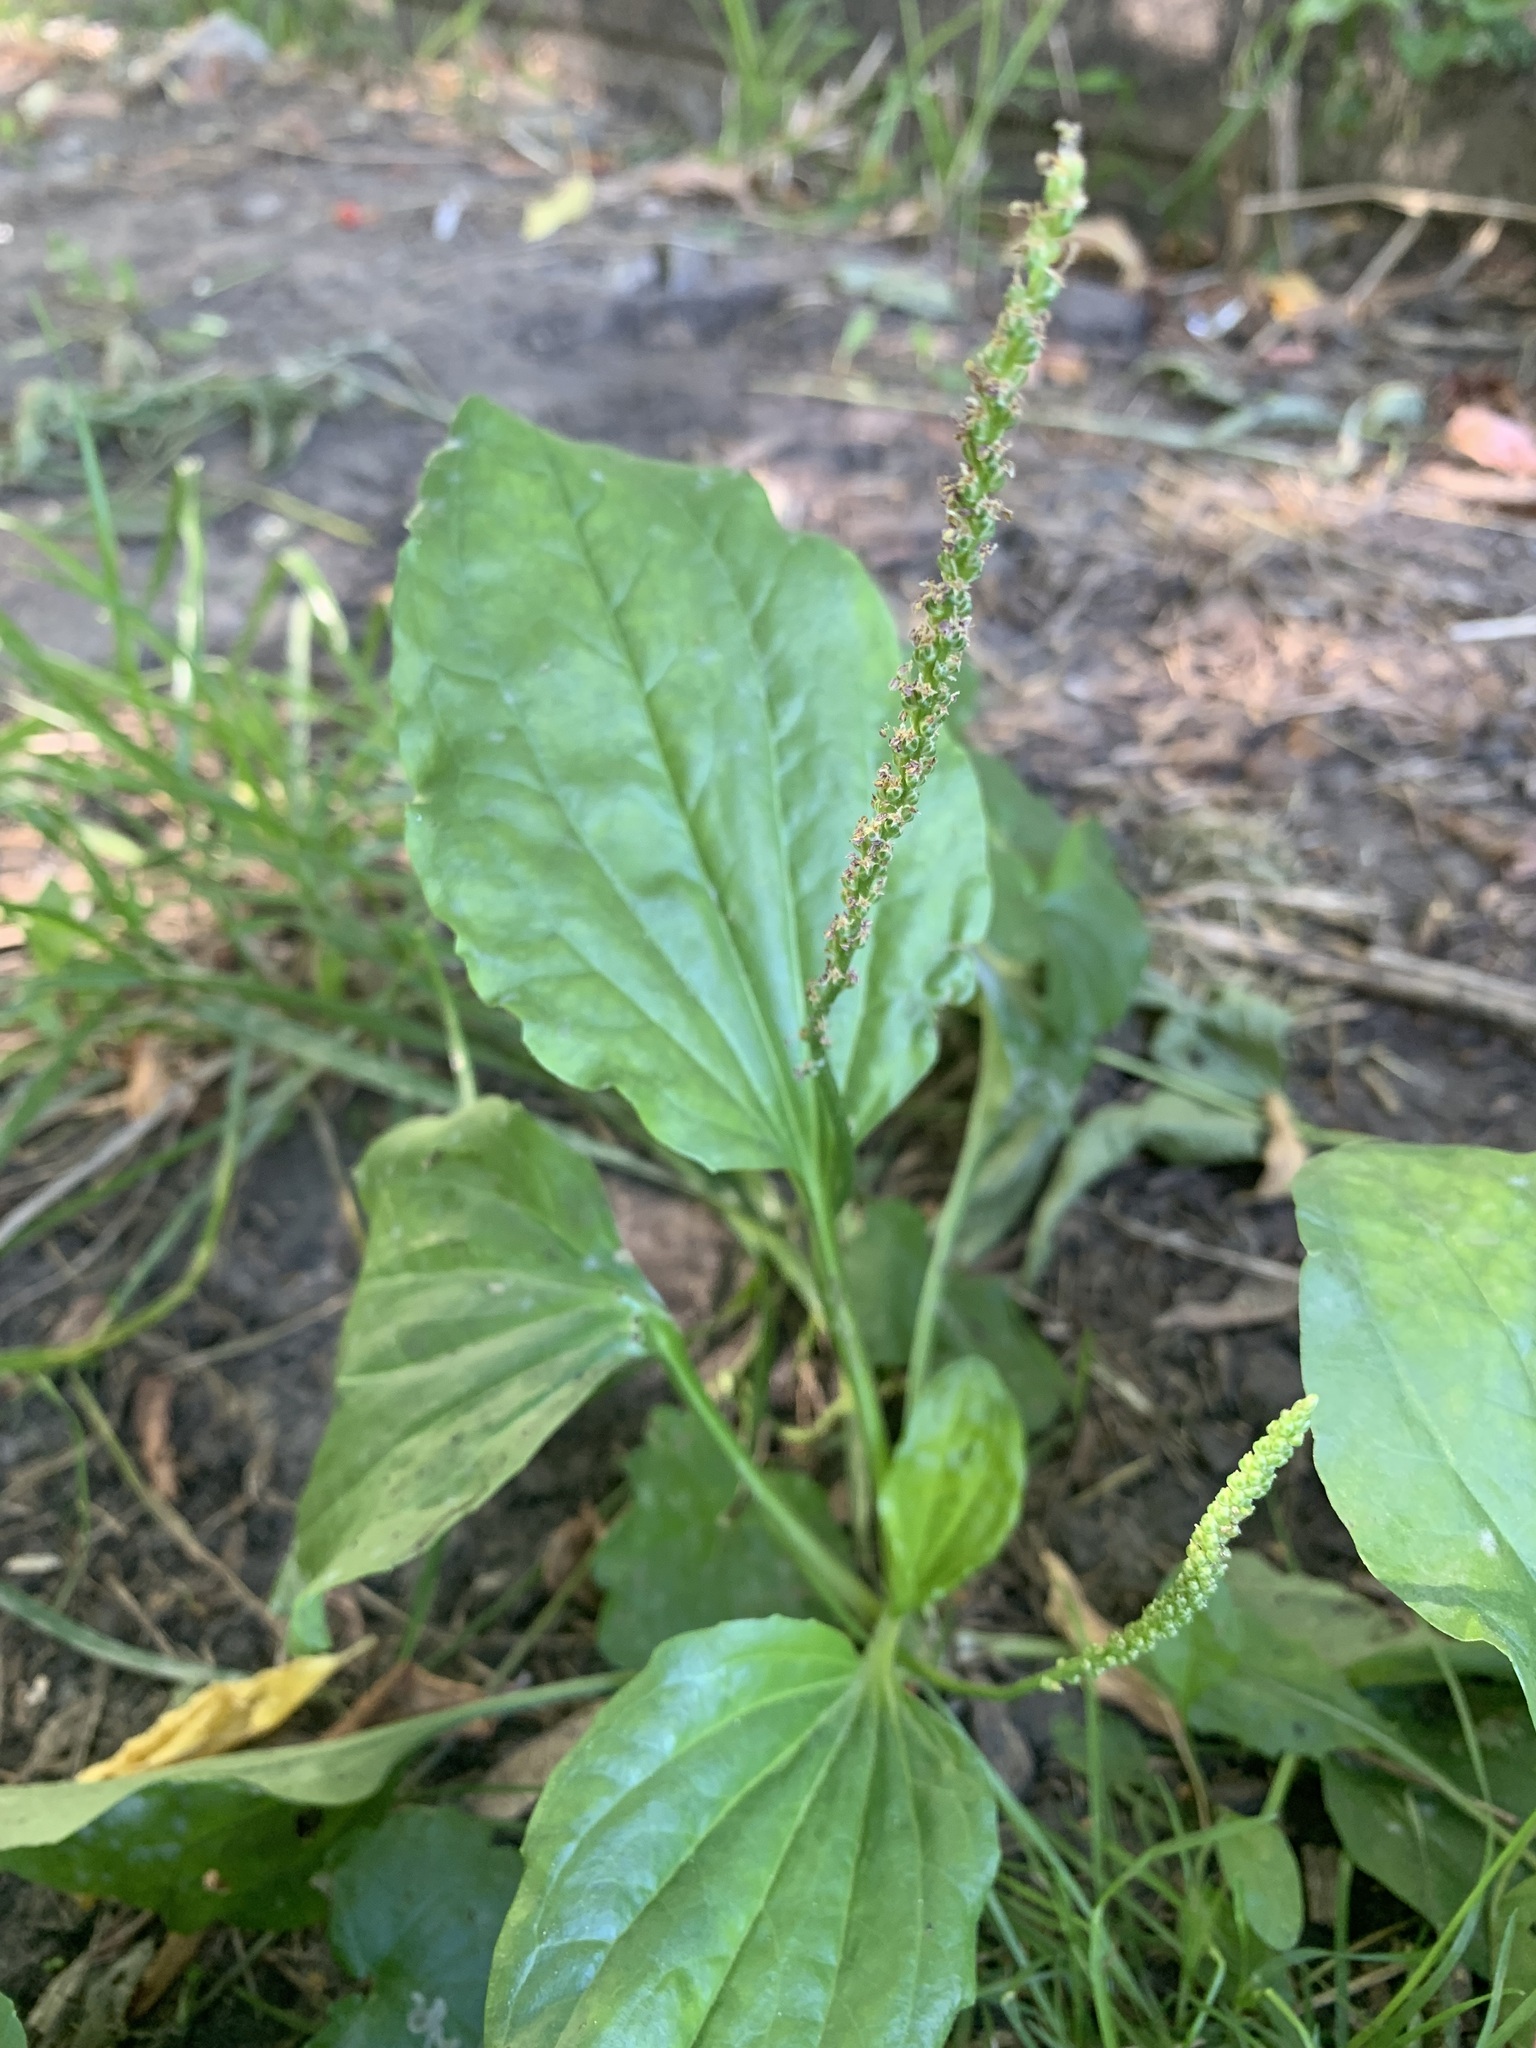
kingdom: Plantae
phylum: Tracheophyta
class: Magnoliopsida
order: Lamiales
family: Plantaginaceae
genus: Plantago
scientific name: Plantago major
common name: Common plantain
